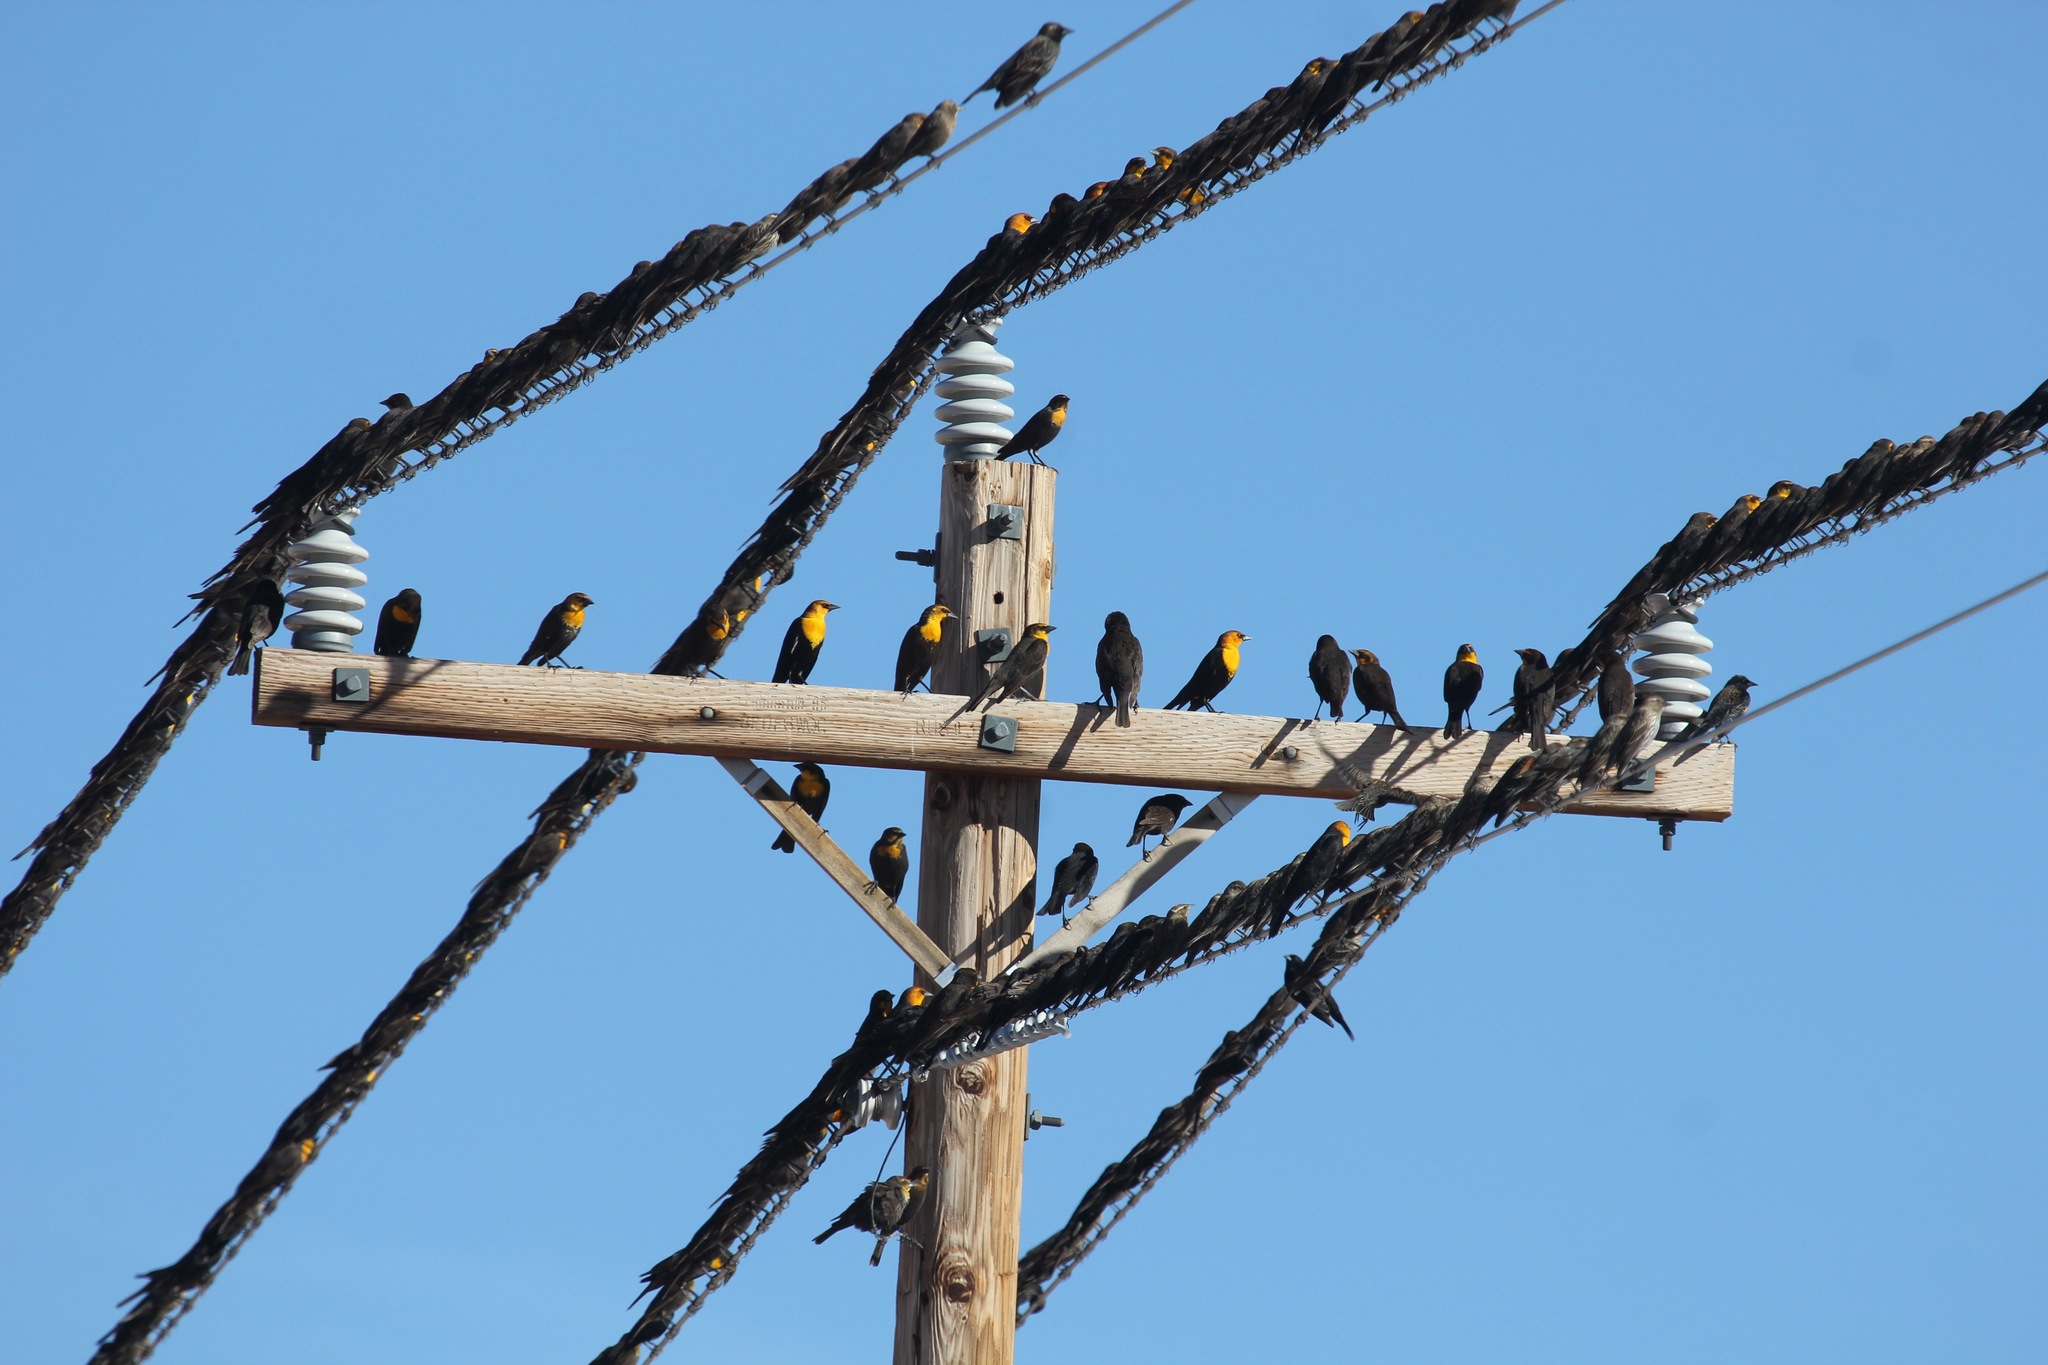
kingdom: Animalia
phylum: Chordata
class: Aves
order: Passeriformes
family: Icteridae
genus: Xanthocephalus
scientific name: Xanthocephalus xanthocephalus
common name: Yellow-headed blackbird
